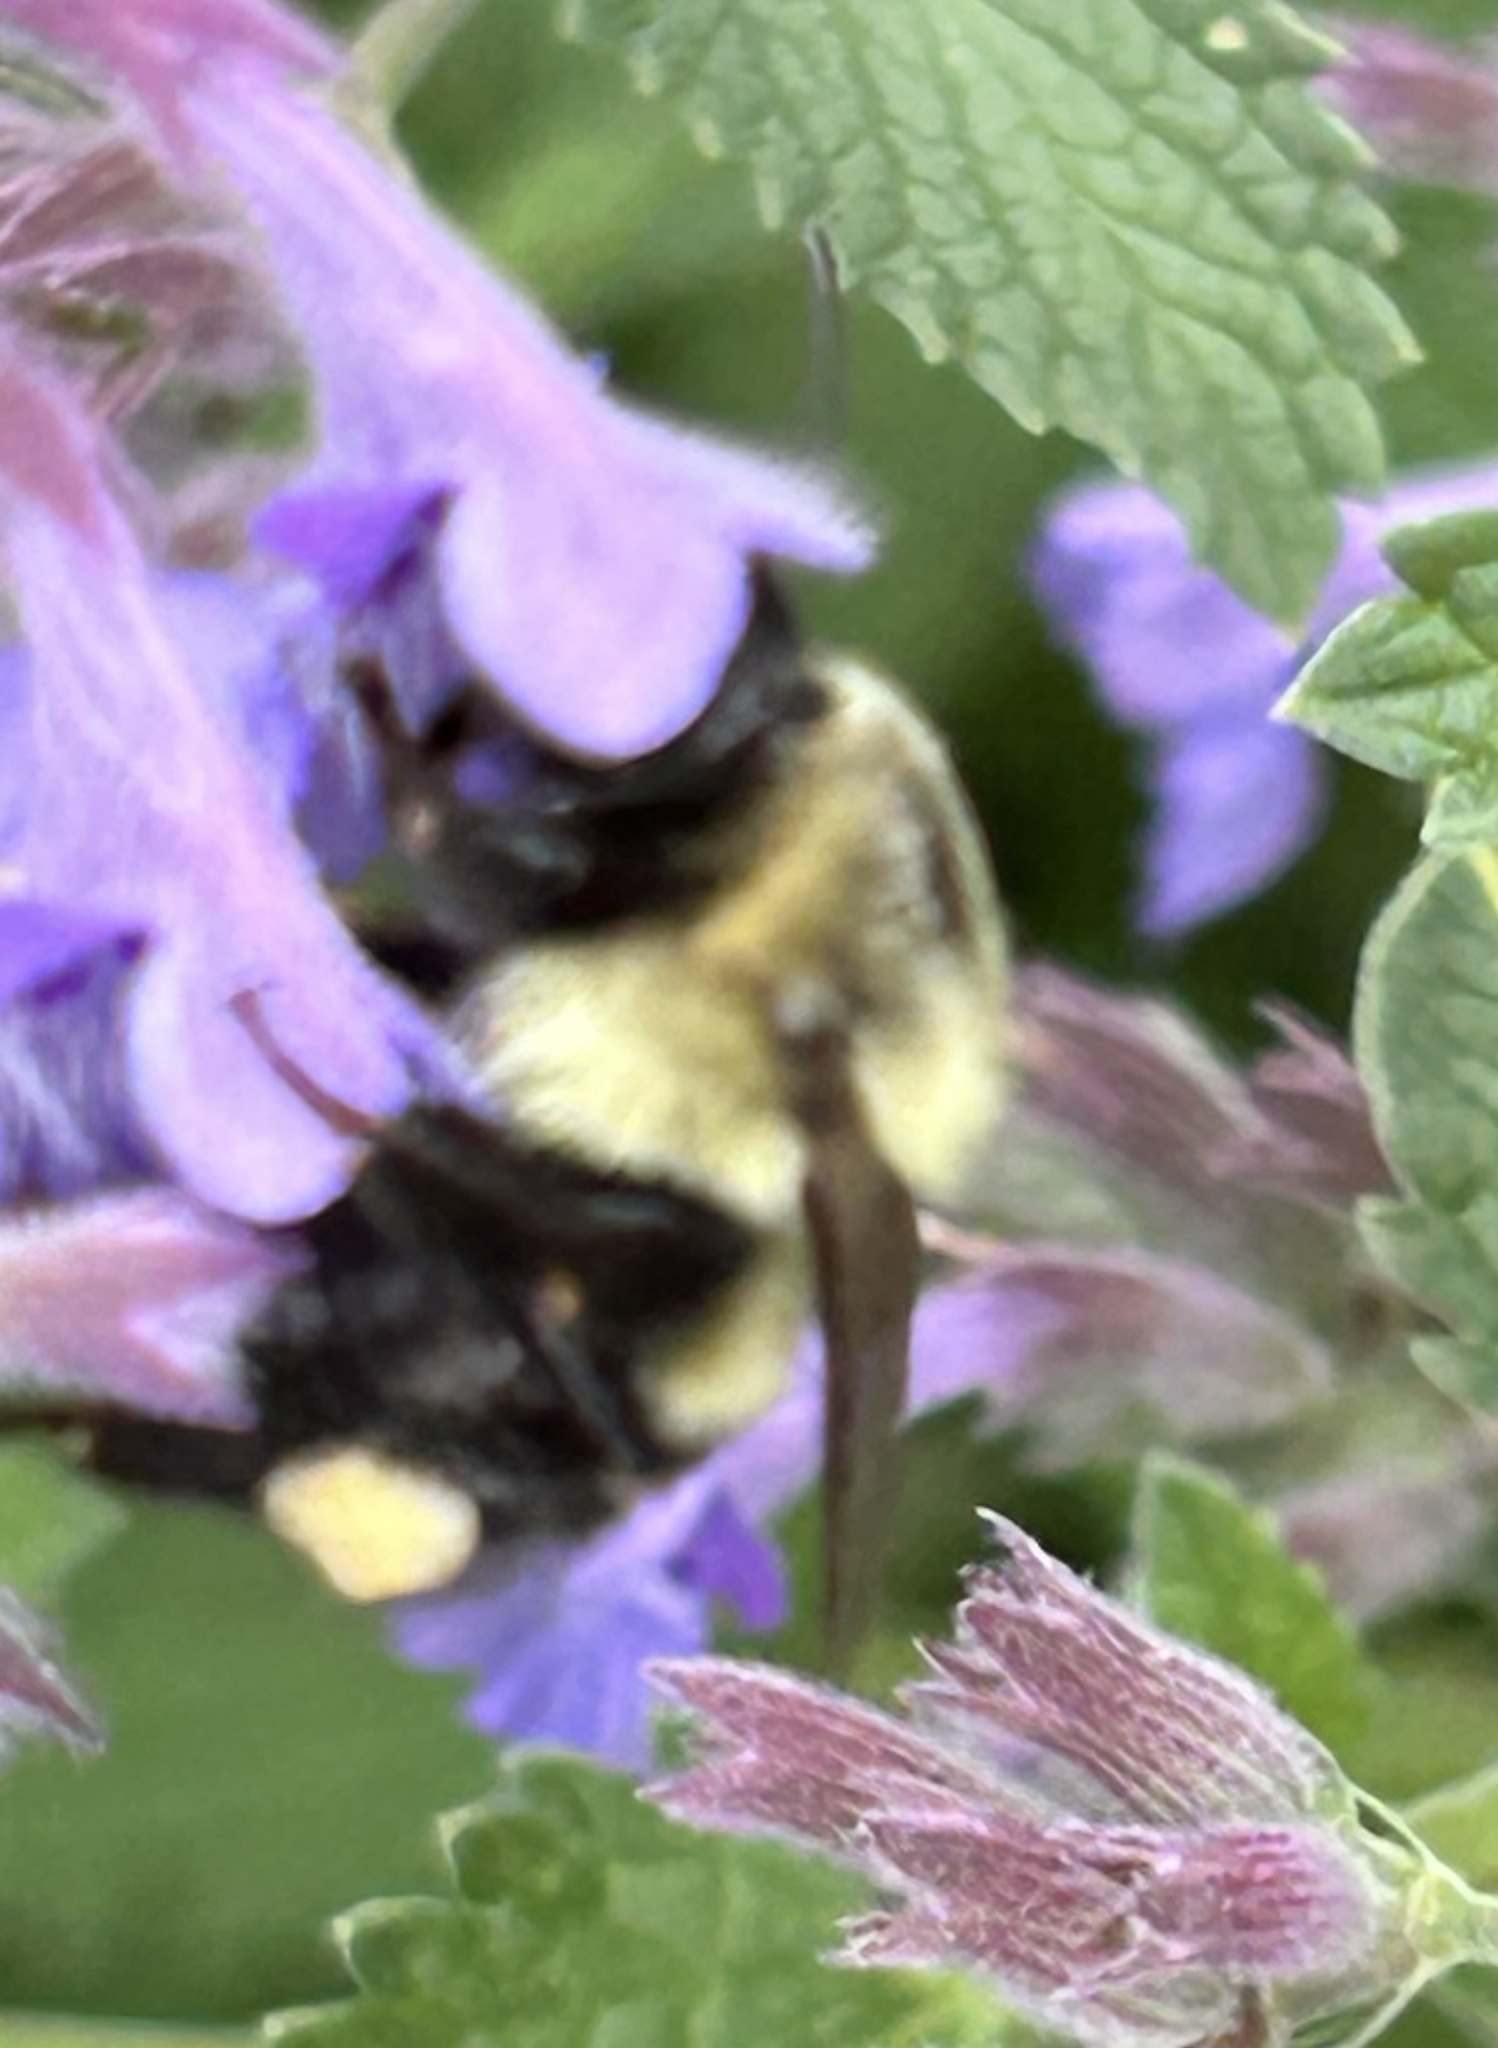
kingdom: Animalia
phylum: Arthropoda
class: Insecta
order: Hymenoptera
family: Apidae
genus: Bombus
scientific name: Bombus impatiens
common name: Common eastern bumble bee
